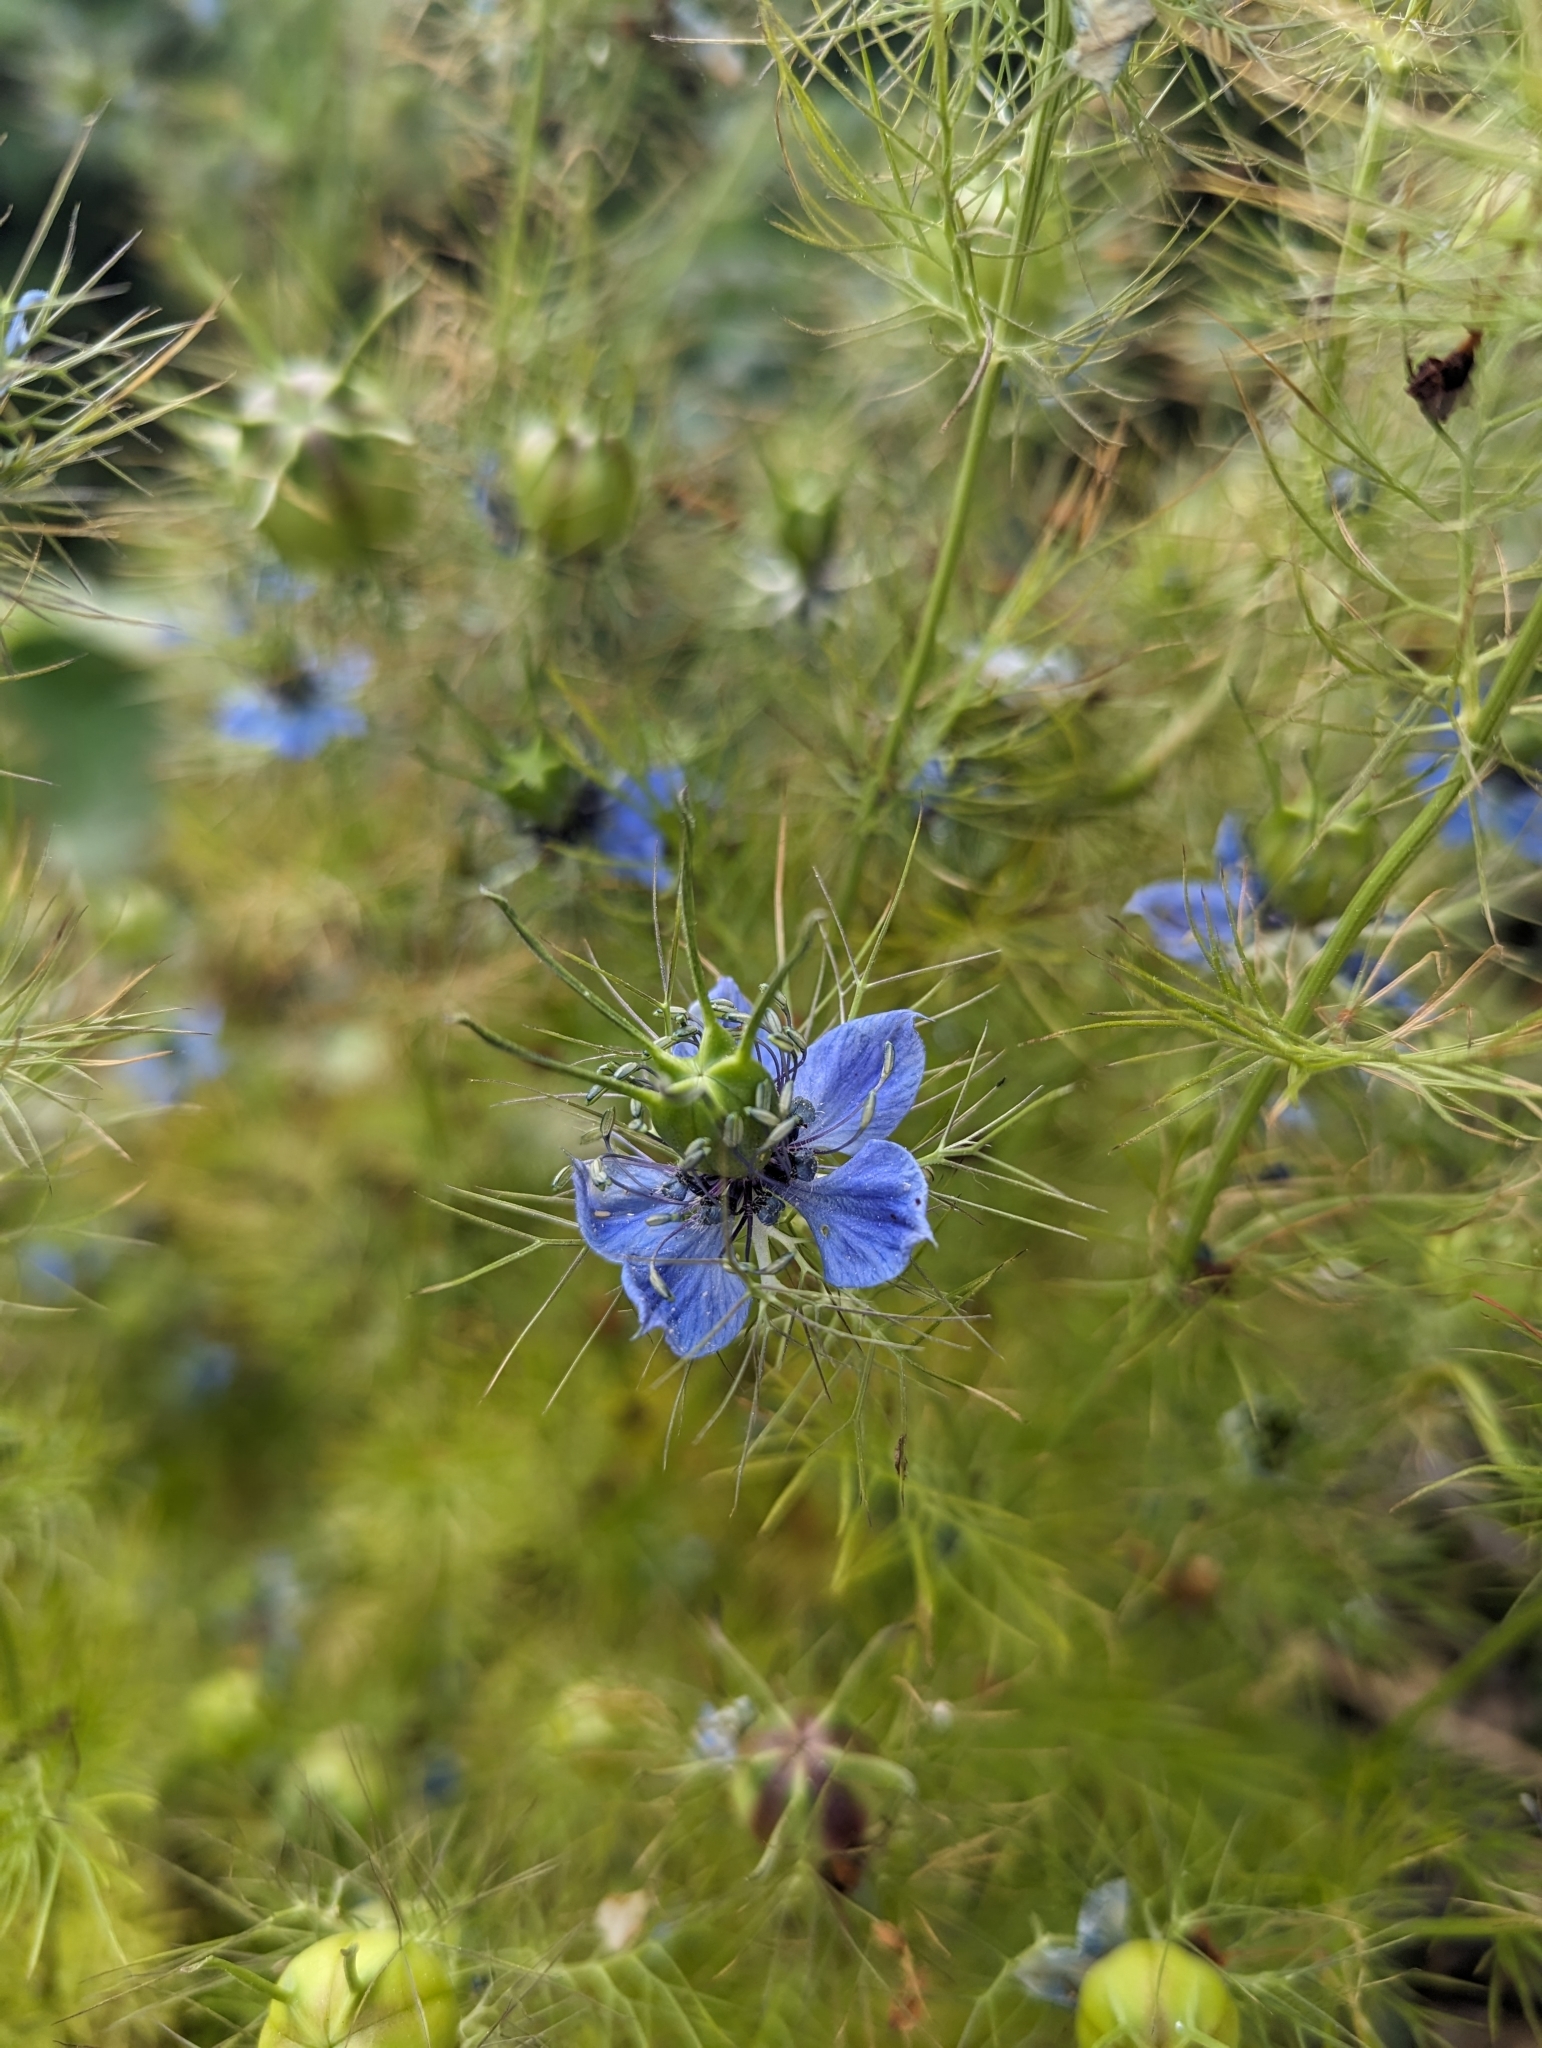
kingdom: Plantae
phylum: Tracheophyta
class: Magnoliopsida
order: Ranunculales
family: Ranunculaceae
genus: Nigella
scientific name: Nigella damascena
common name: Love-in-a-mist
